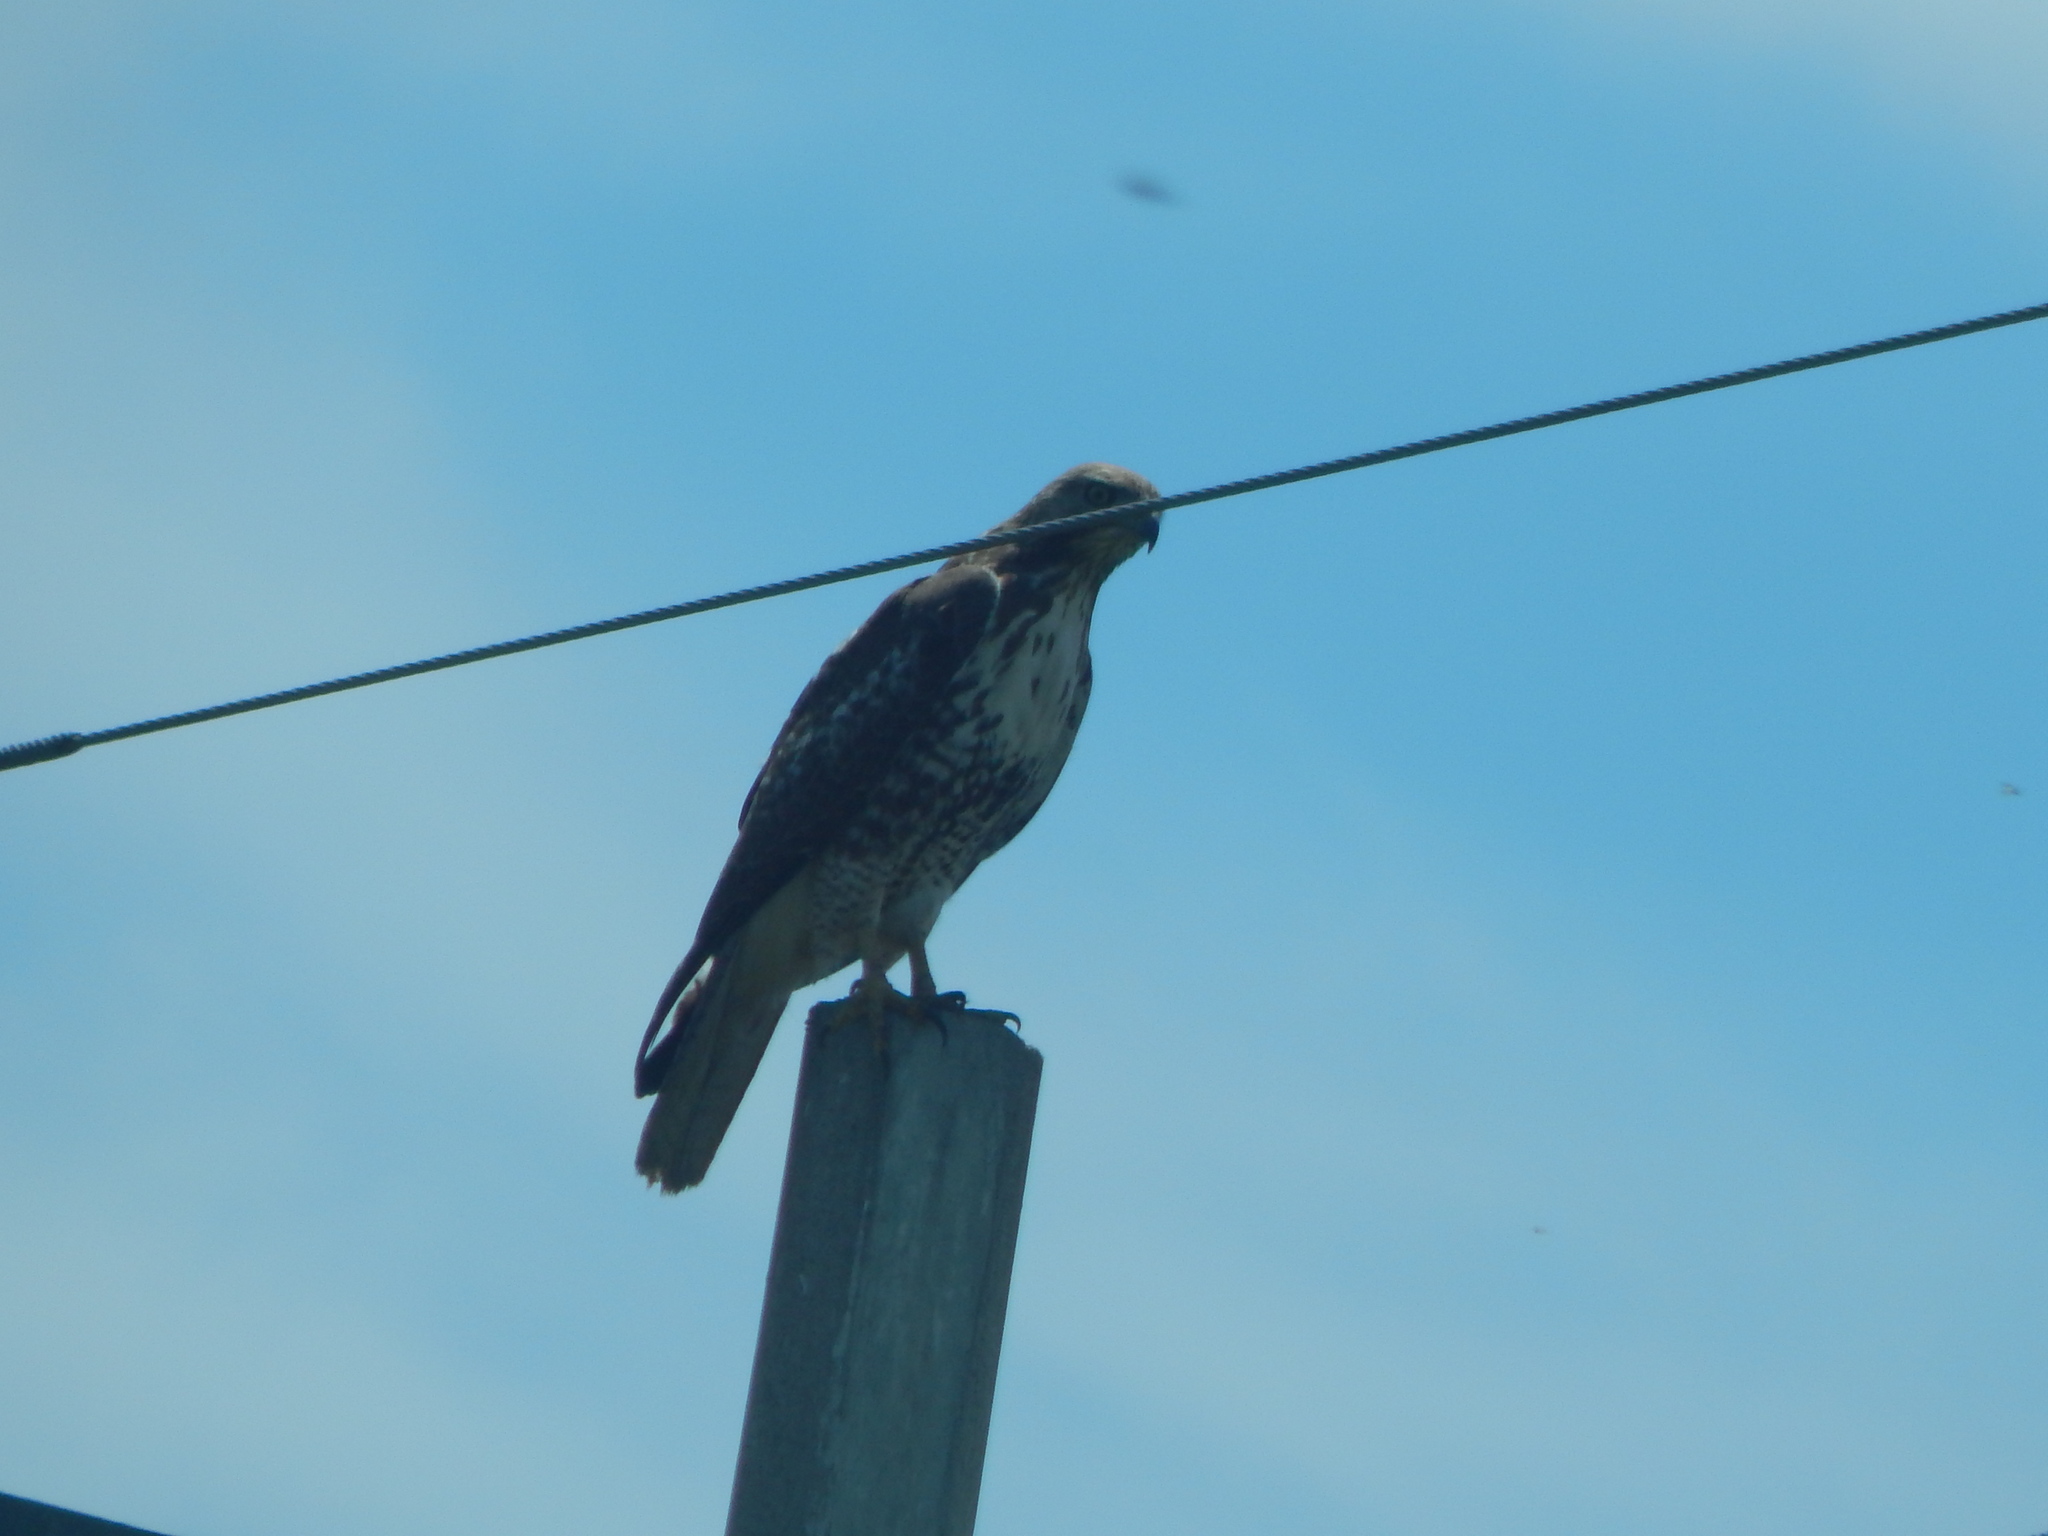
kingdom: Animalia
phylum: Chordata
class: Aves
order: Accipitriformes
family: Accipitridae
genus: Buteo
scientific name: Buteo jamaicensis
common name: Red-tailed hawk
